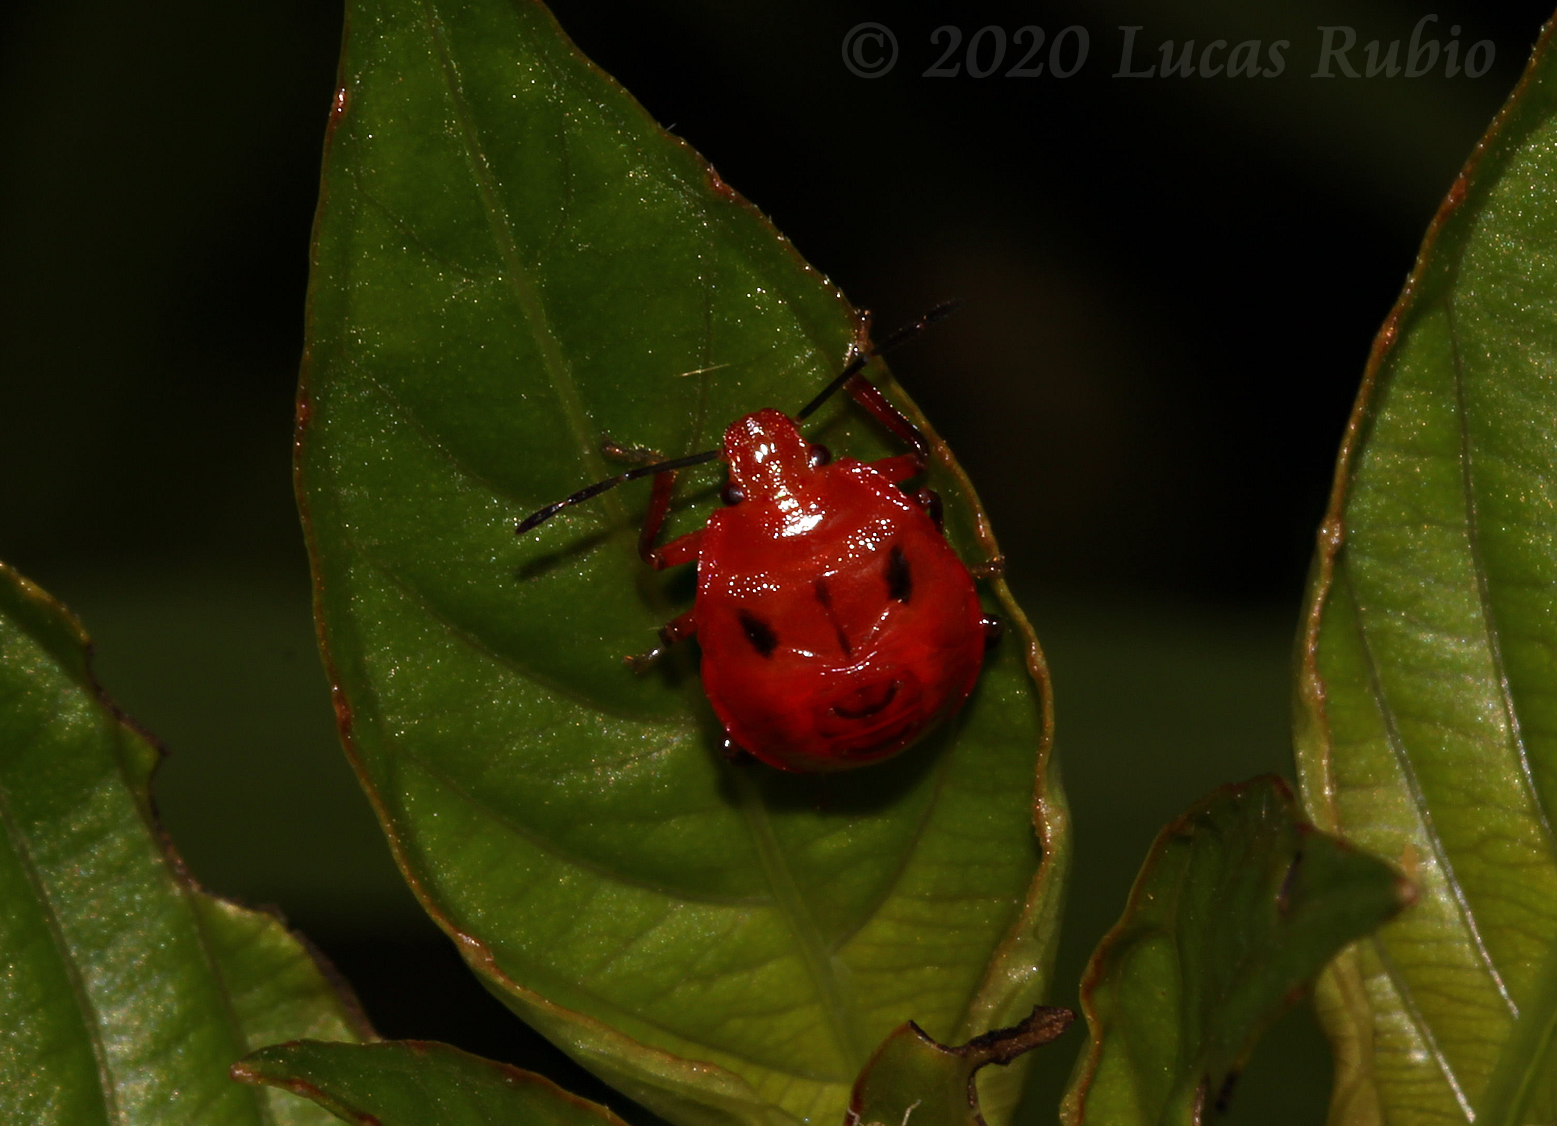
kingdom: Animalia
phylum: Arthropoda
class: Insecta
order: Hemiptera
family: Pentatomidae
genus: Supputius
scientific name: Supputius
